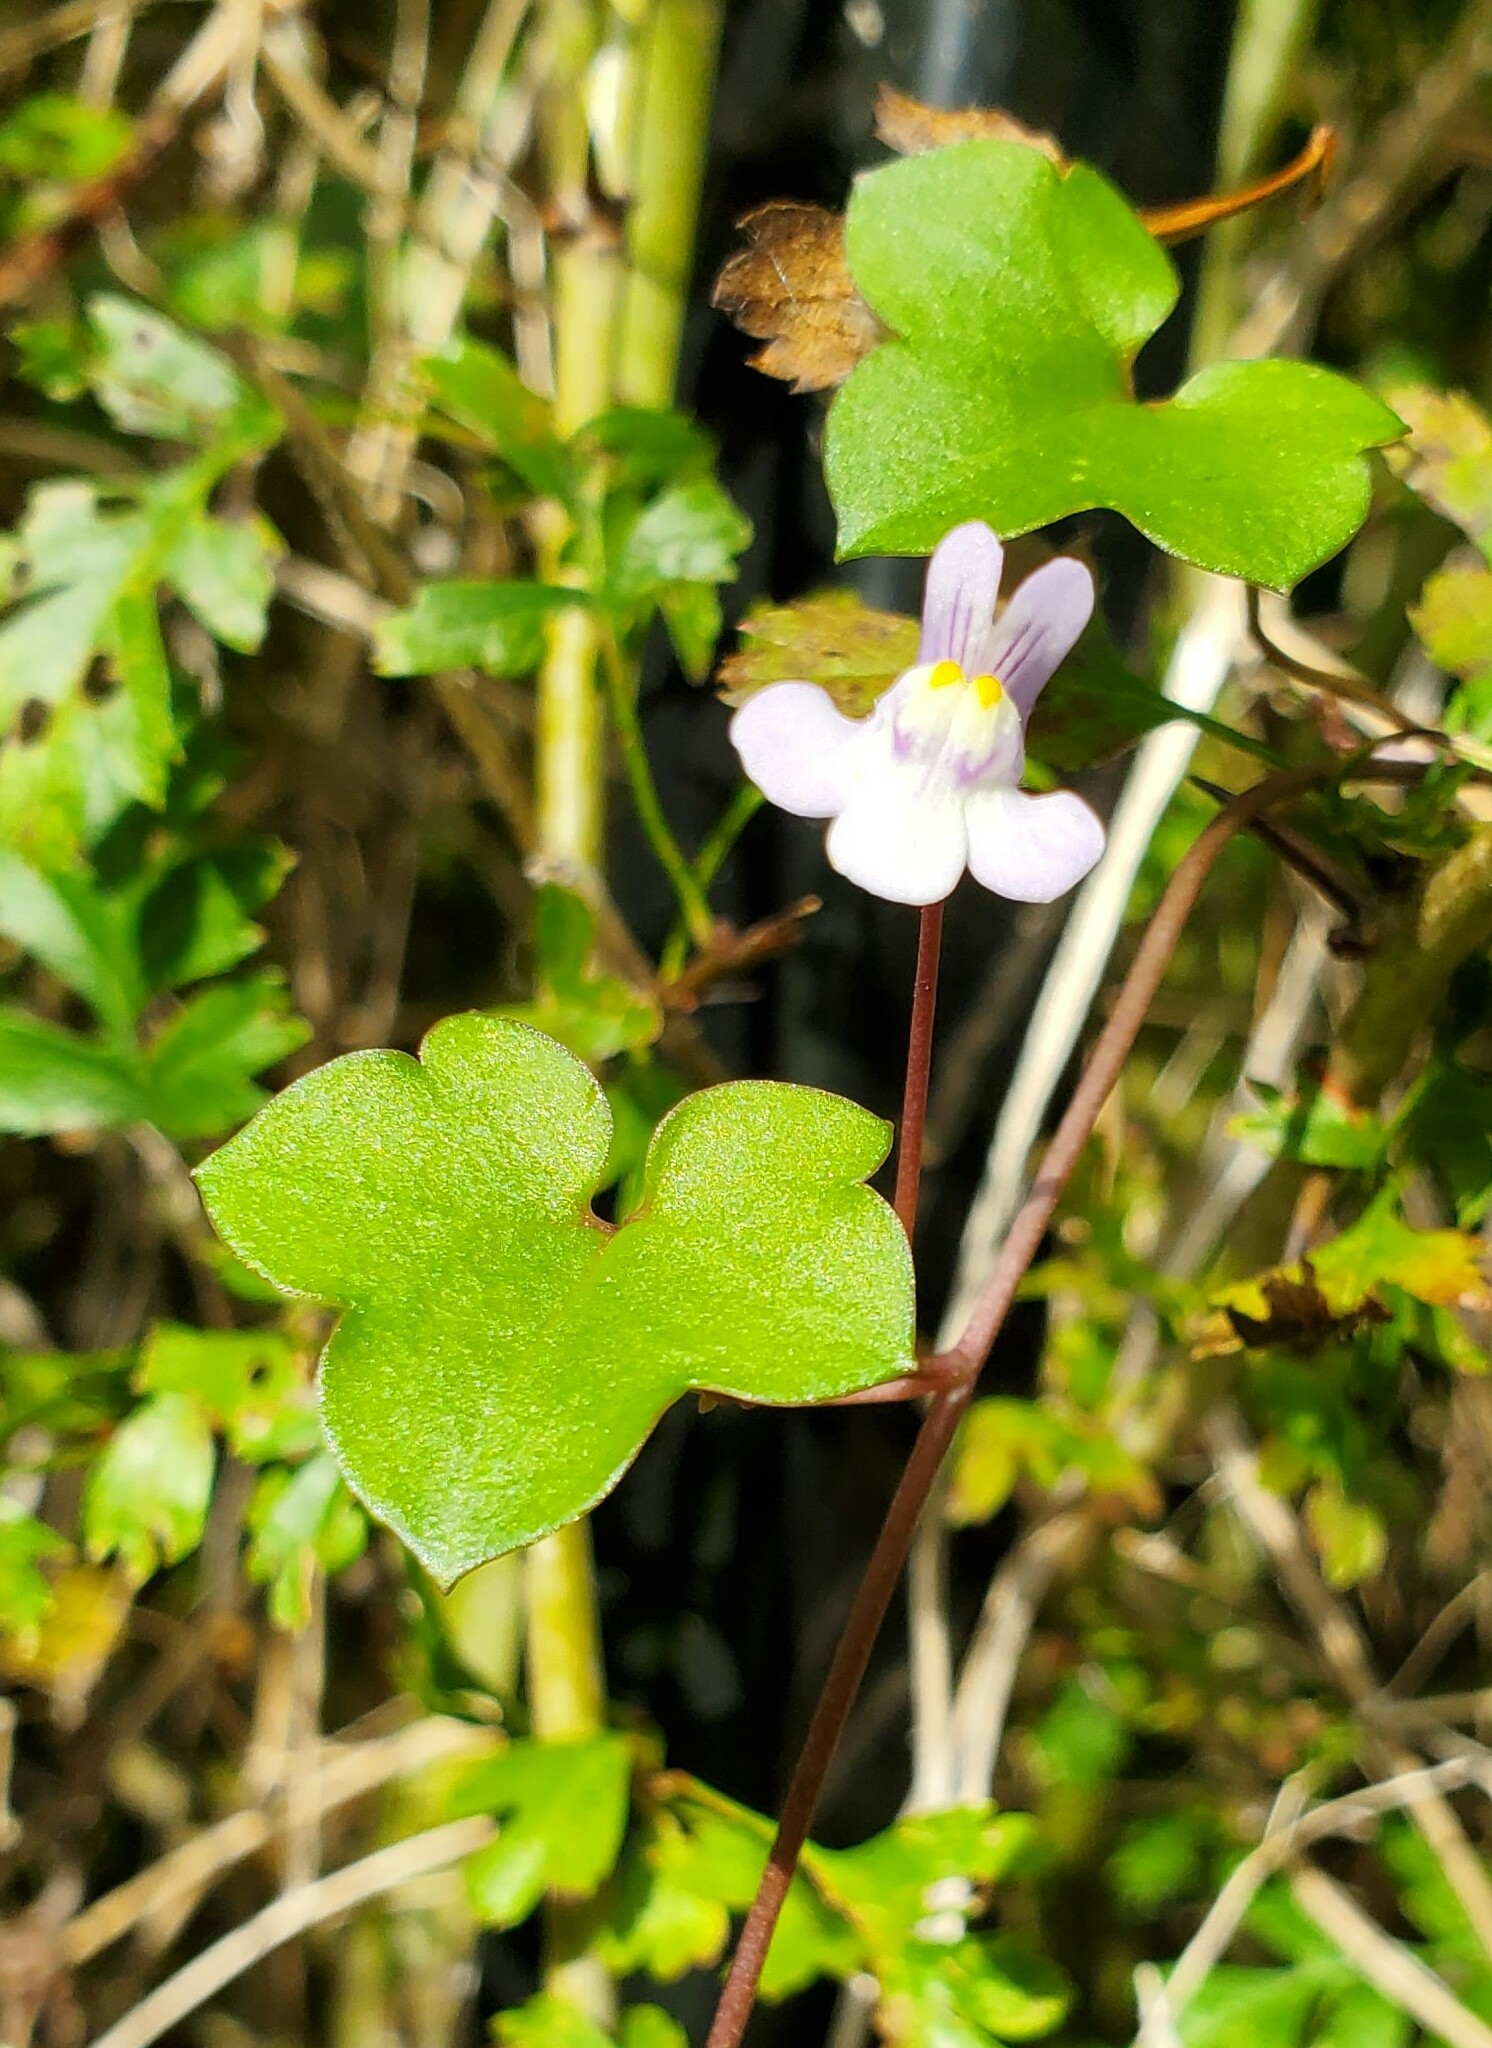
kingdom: Plantae
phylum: Tracheophyta
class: Magnoliopsida
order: Lamiales
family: Plantaginaceae
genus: Cymbalaria
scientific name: Cymbalaria muralis
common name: Ivy-leaved toadflax
